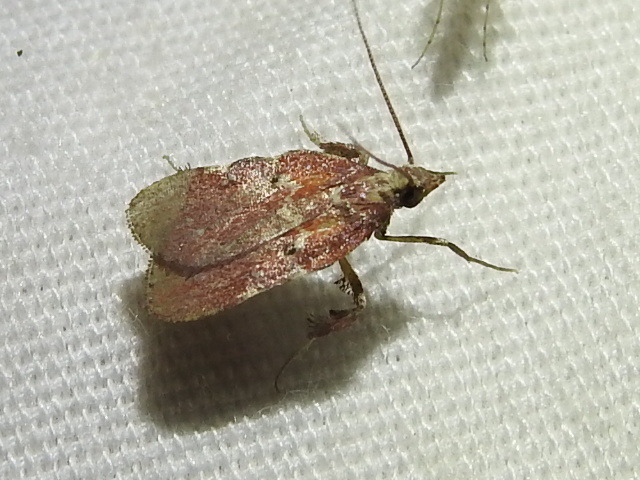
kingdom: Animalia
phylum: Arthropoda
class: Insecta
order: Lepidoptera
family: Pyralidae
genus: Galasa
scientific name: Galasa nigrinodis
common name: Boxwood leaftier moth
